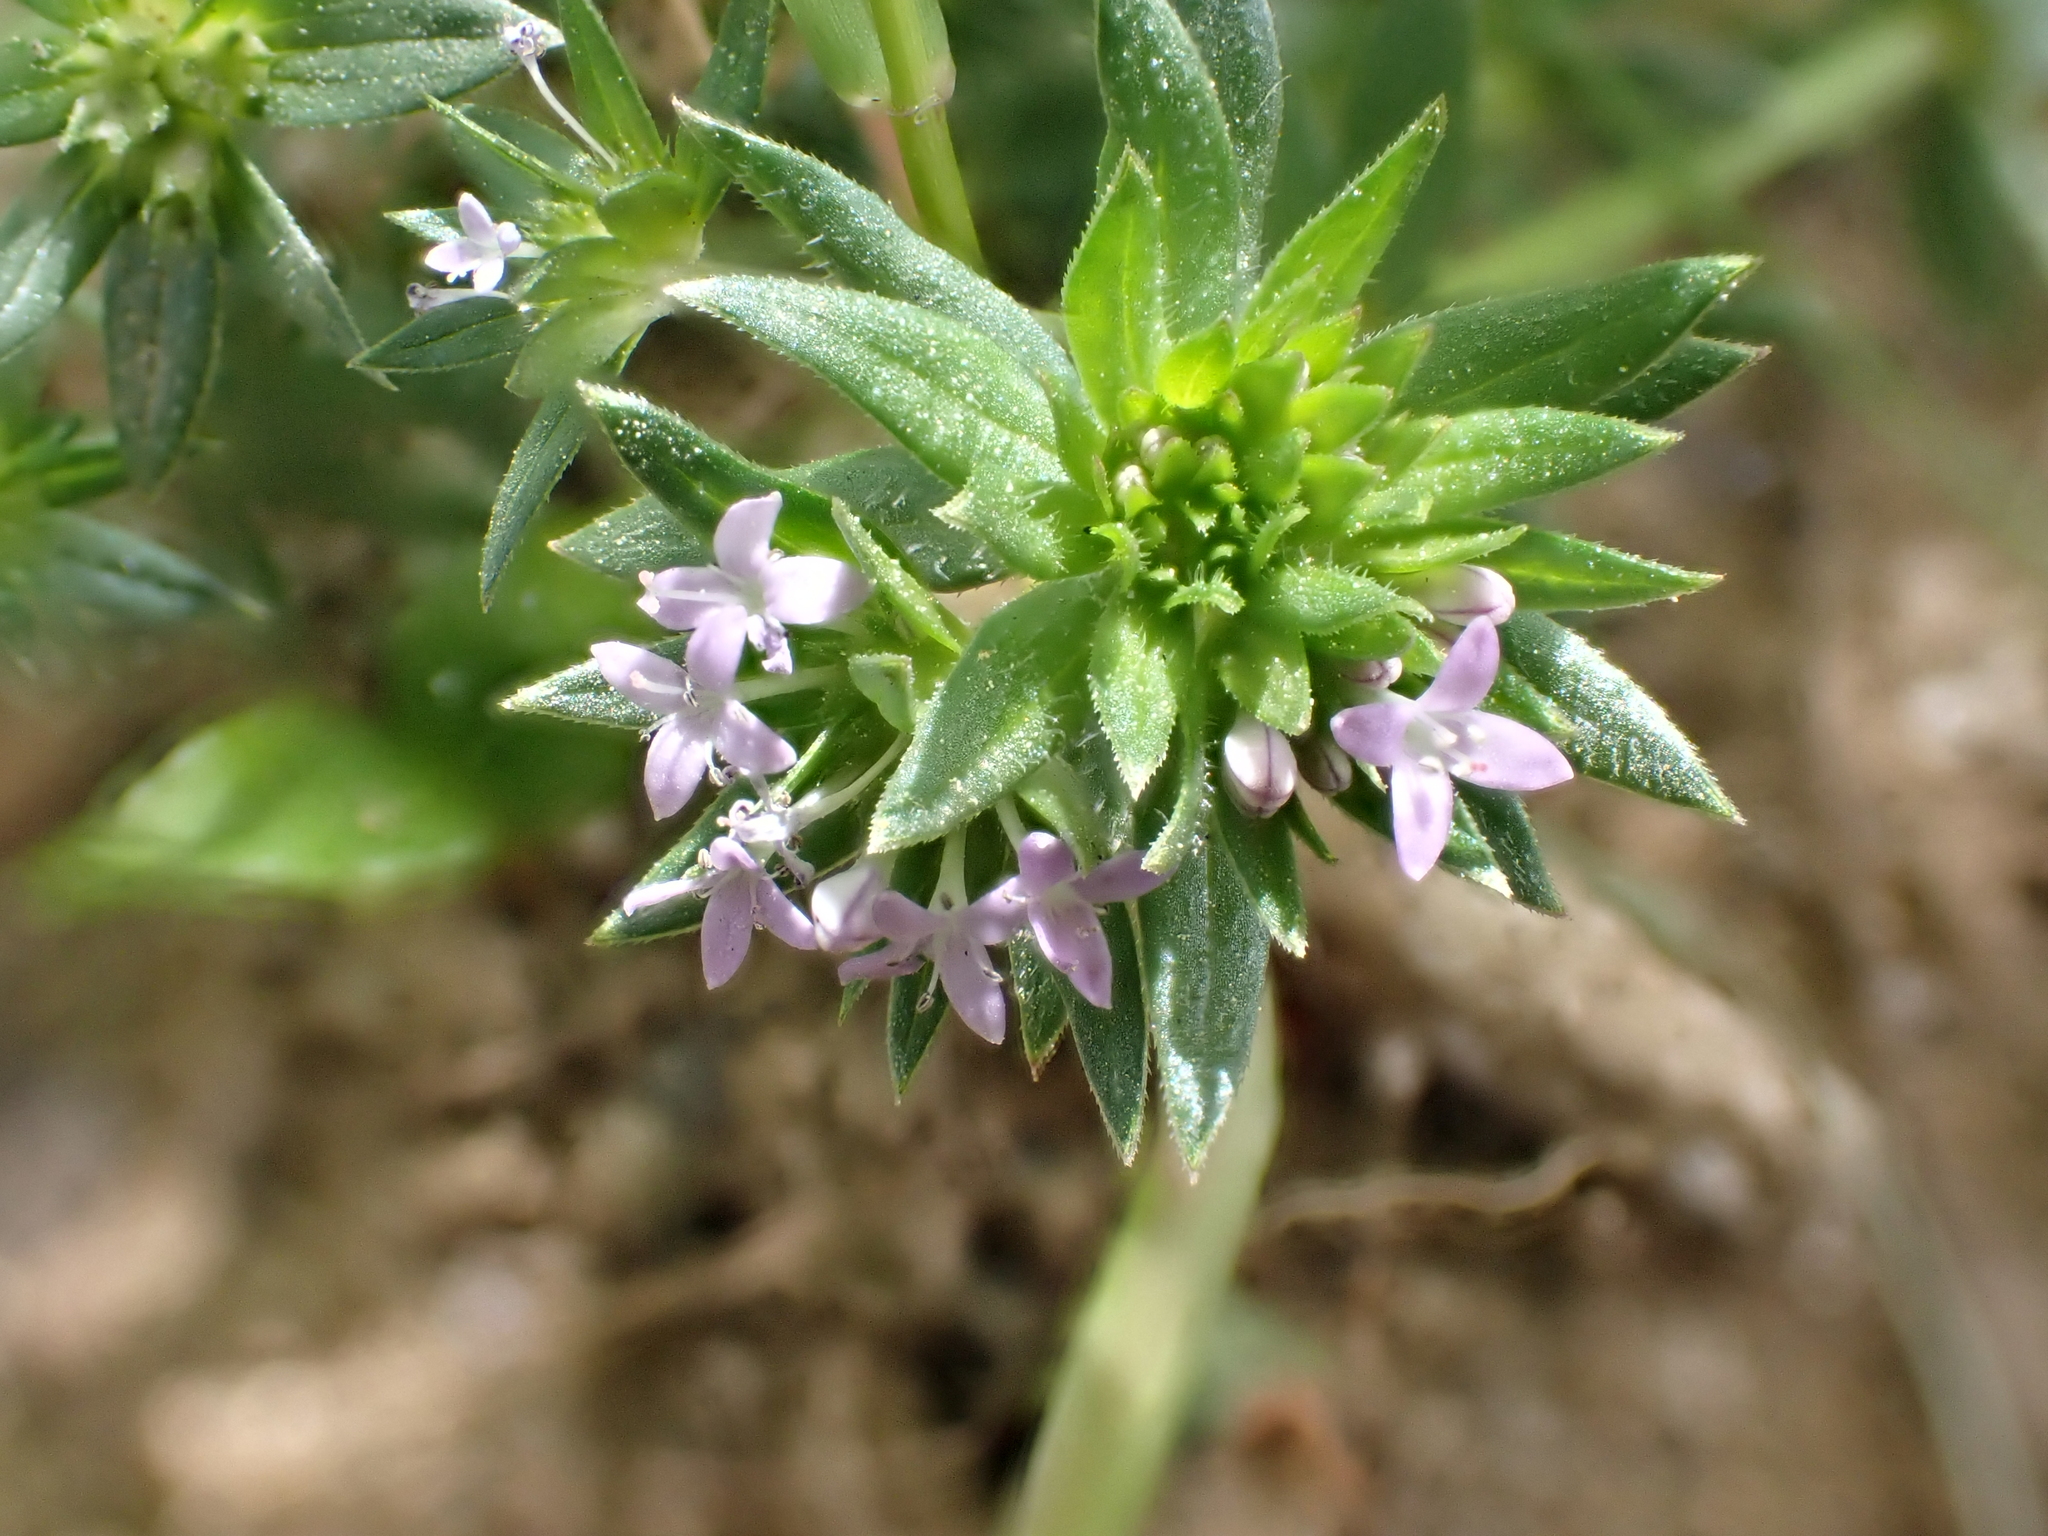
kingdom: Plantae
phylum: Tracheophyta
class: Magnoliopsida
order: Gentianales
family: Rubiaceae
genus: Sherardia
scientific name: Sherardia arvensis
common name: Field madder
